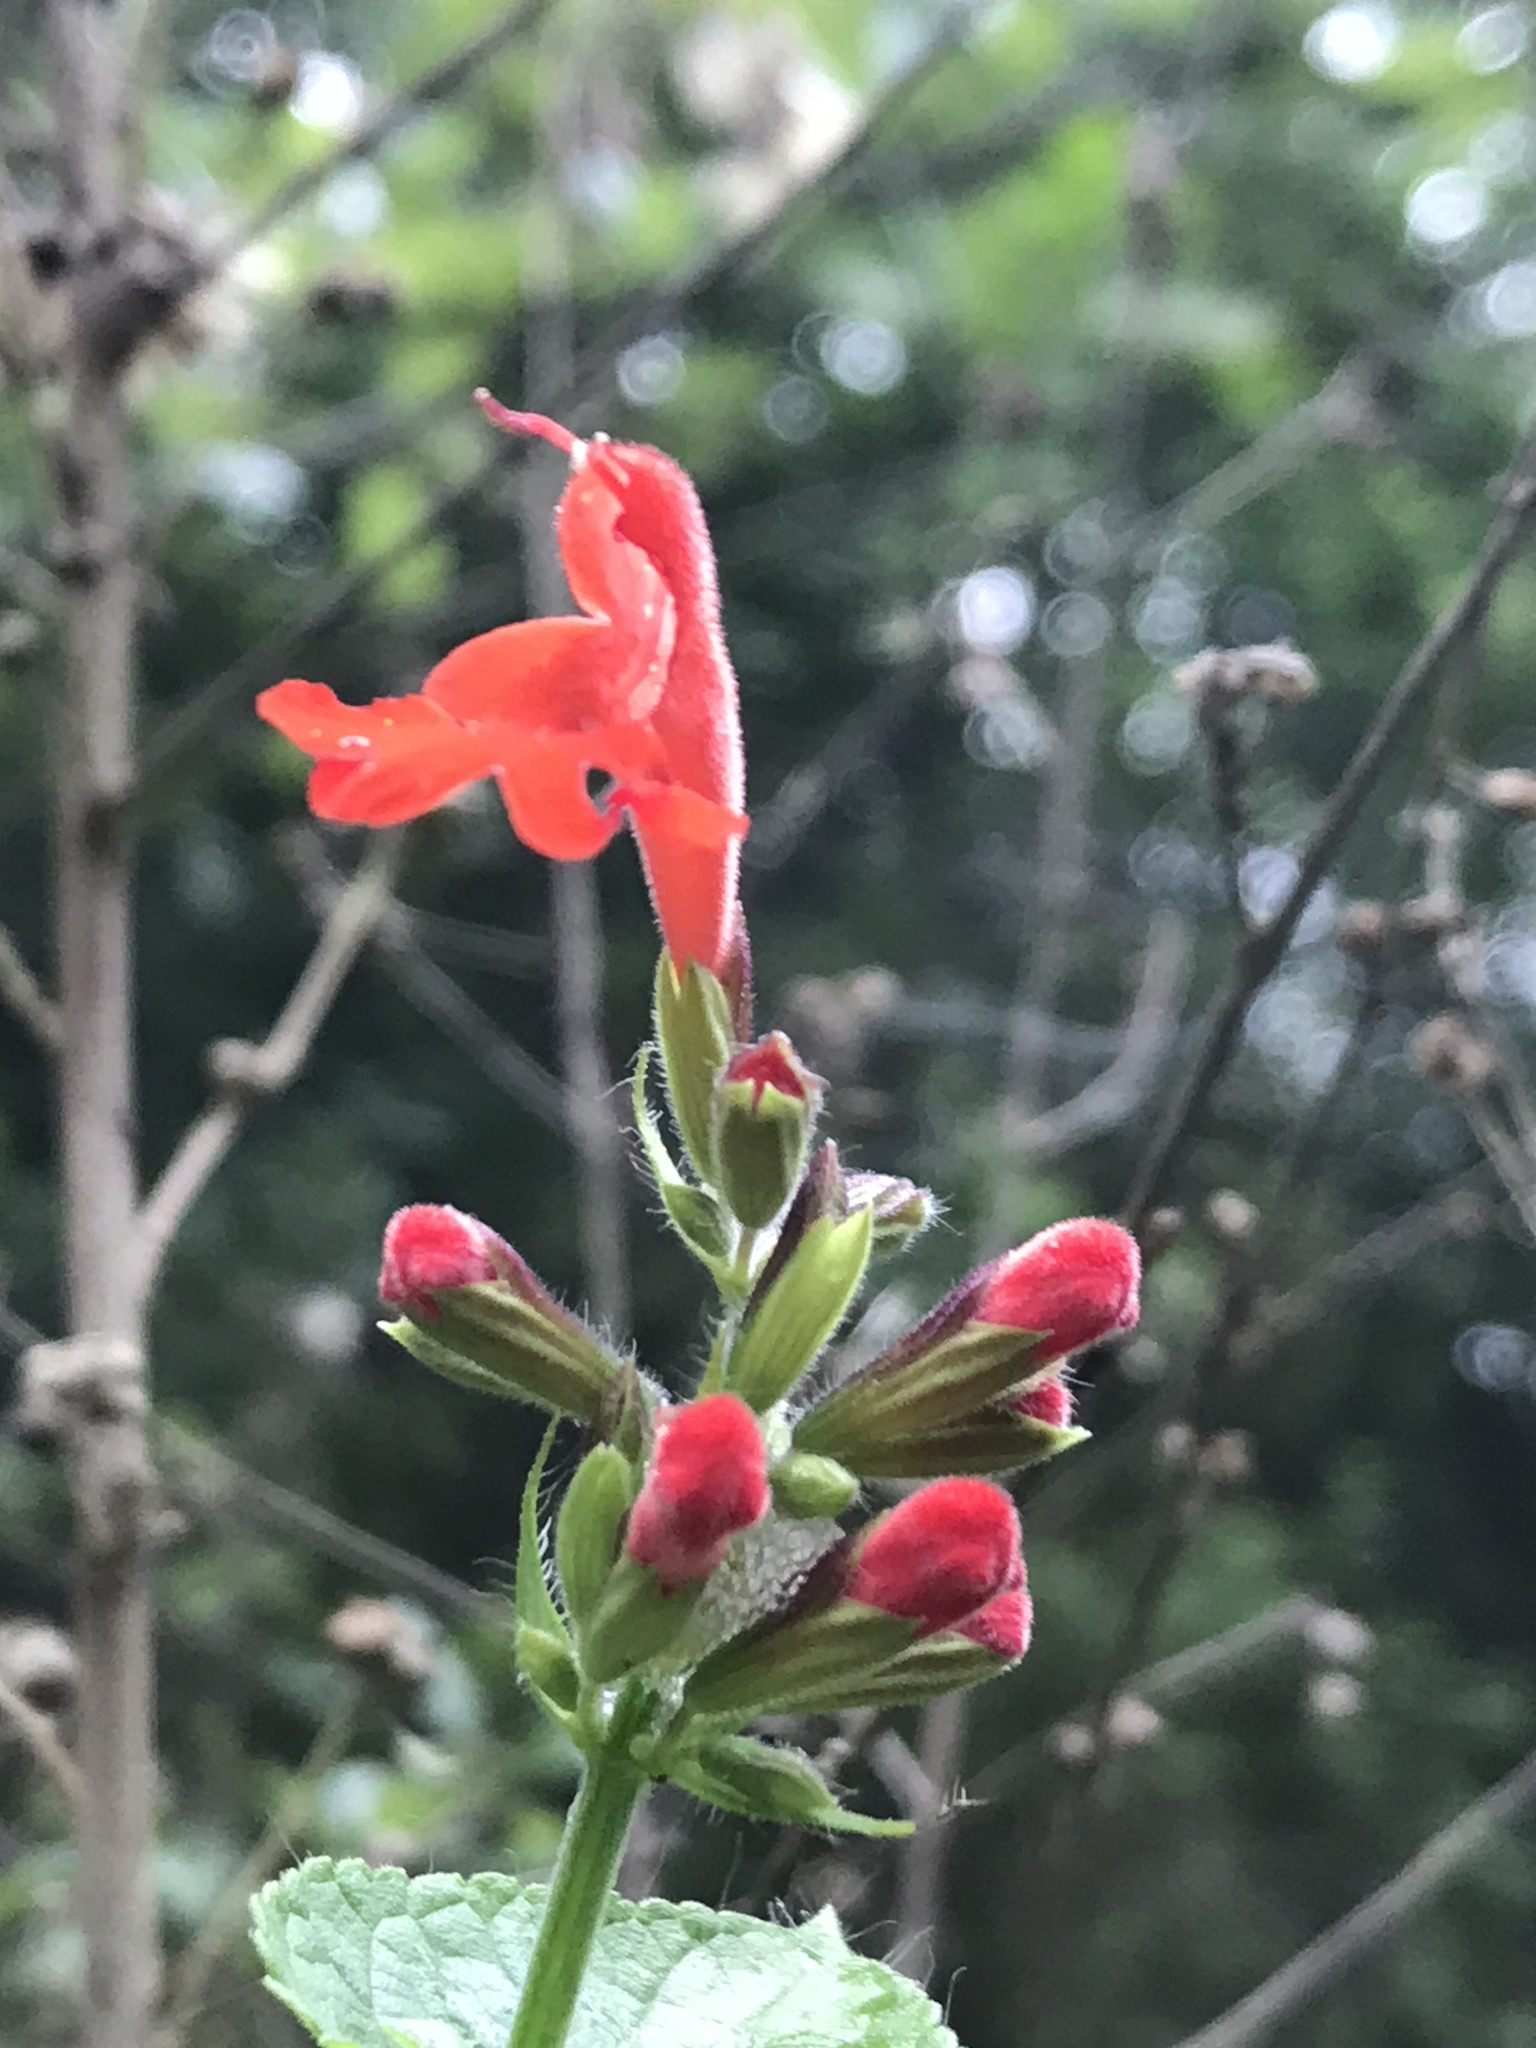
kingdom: Plantae
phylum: Tracheophyta
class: Magnoliopsida
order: Lamiales
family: Lamiaceae
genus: Salvia
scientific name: Salvia coccinea
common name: Blood sage
